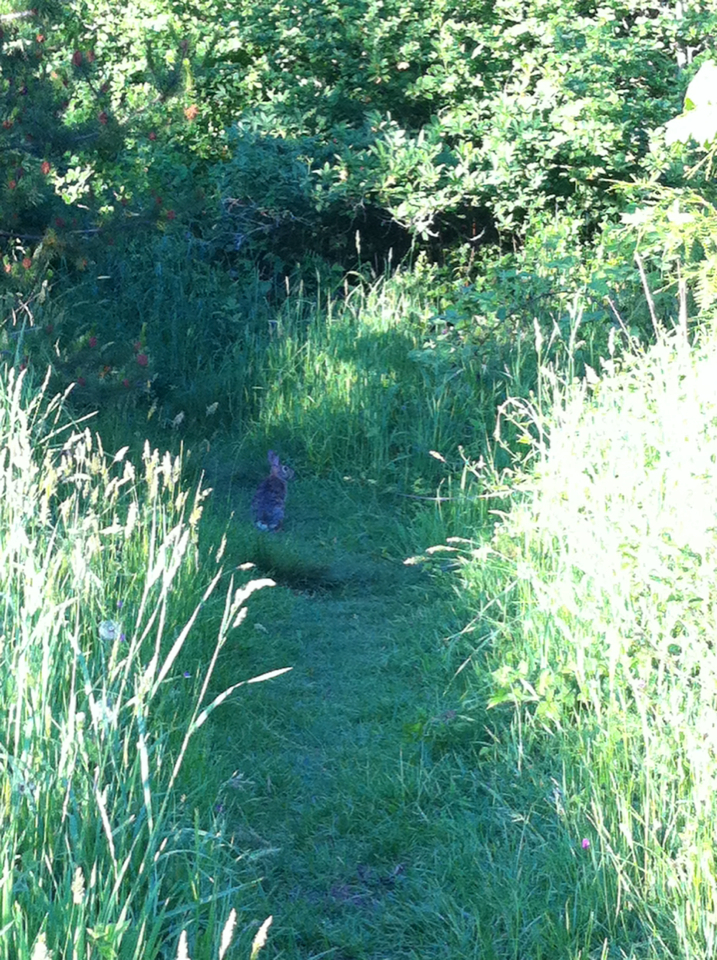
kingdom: Animalia
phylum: Chordata
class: Mammalia
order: Lagomorpha
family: Leporidae
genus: Sylvilagus
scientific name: Sylvilagus floridanus
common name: Eastern cottontail
